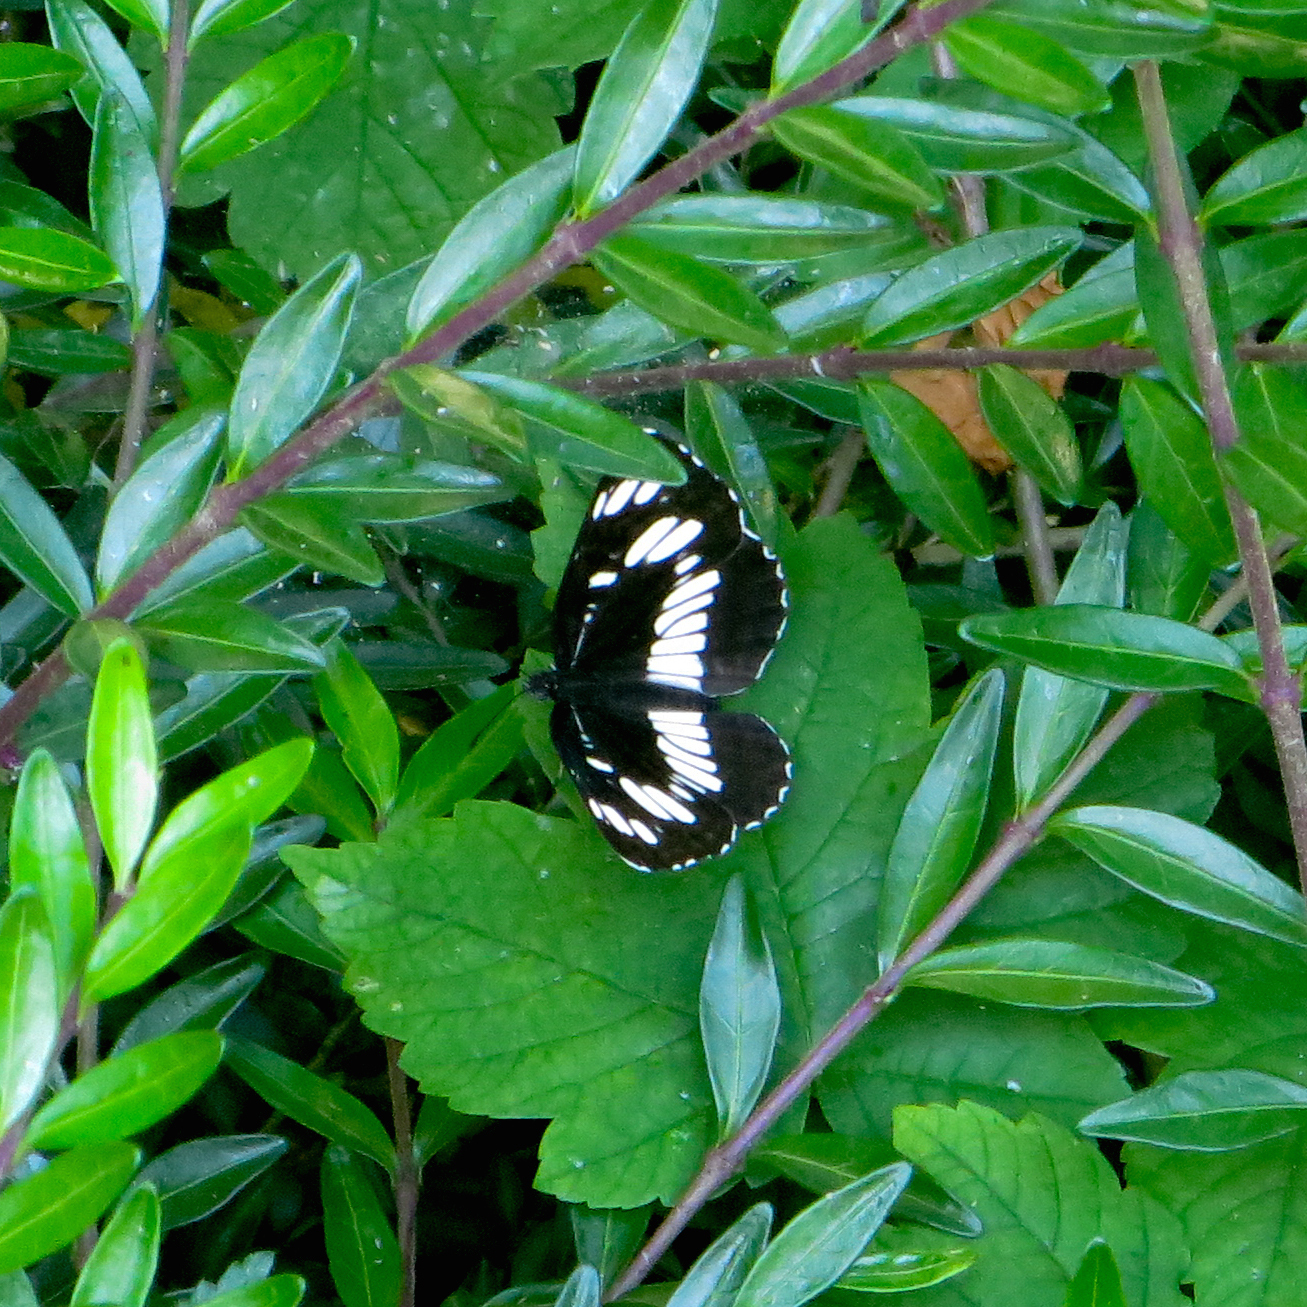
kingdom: Animalia
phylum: Arthropoda
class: Insecta
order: Lepidoptera
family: Nymphalidae
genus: Neptis
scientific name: Neptis rivularis
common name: Hungarian glider
